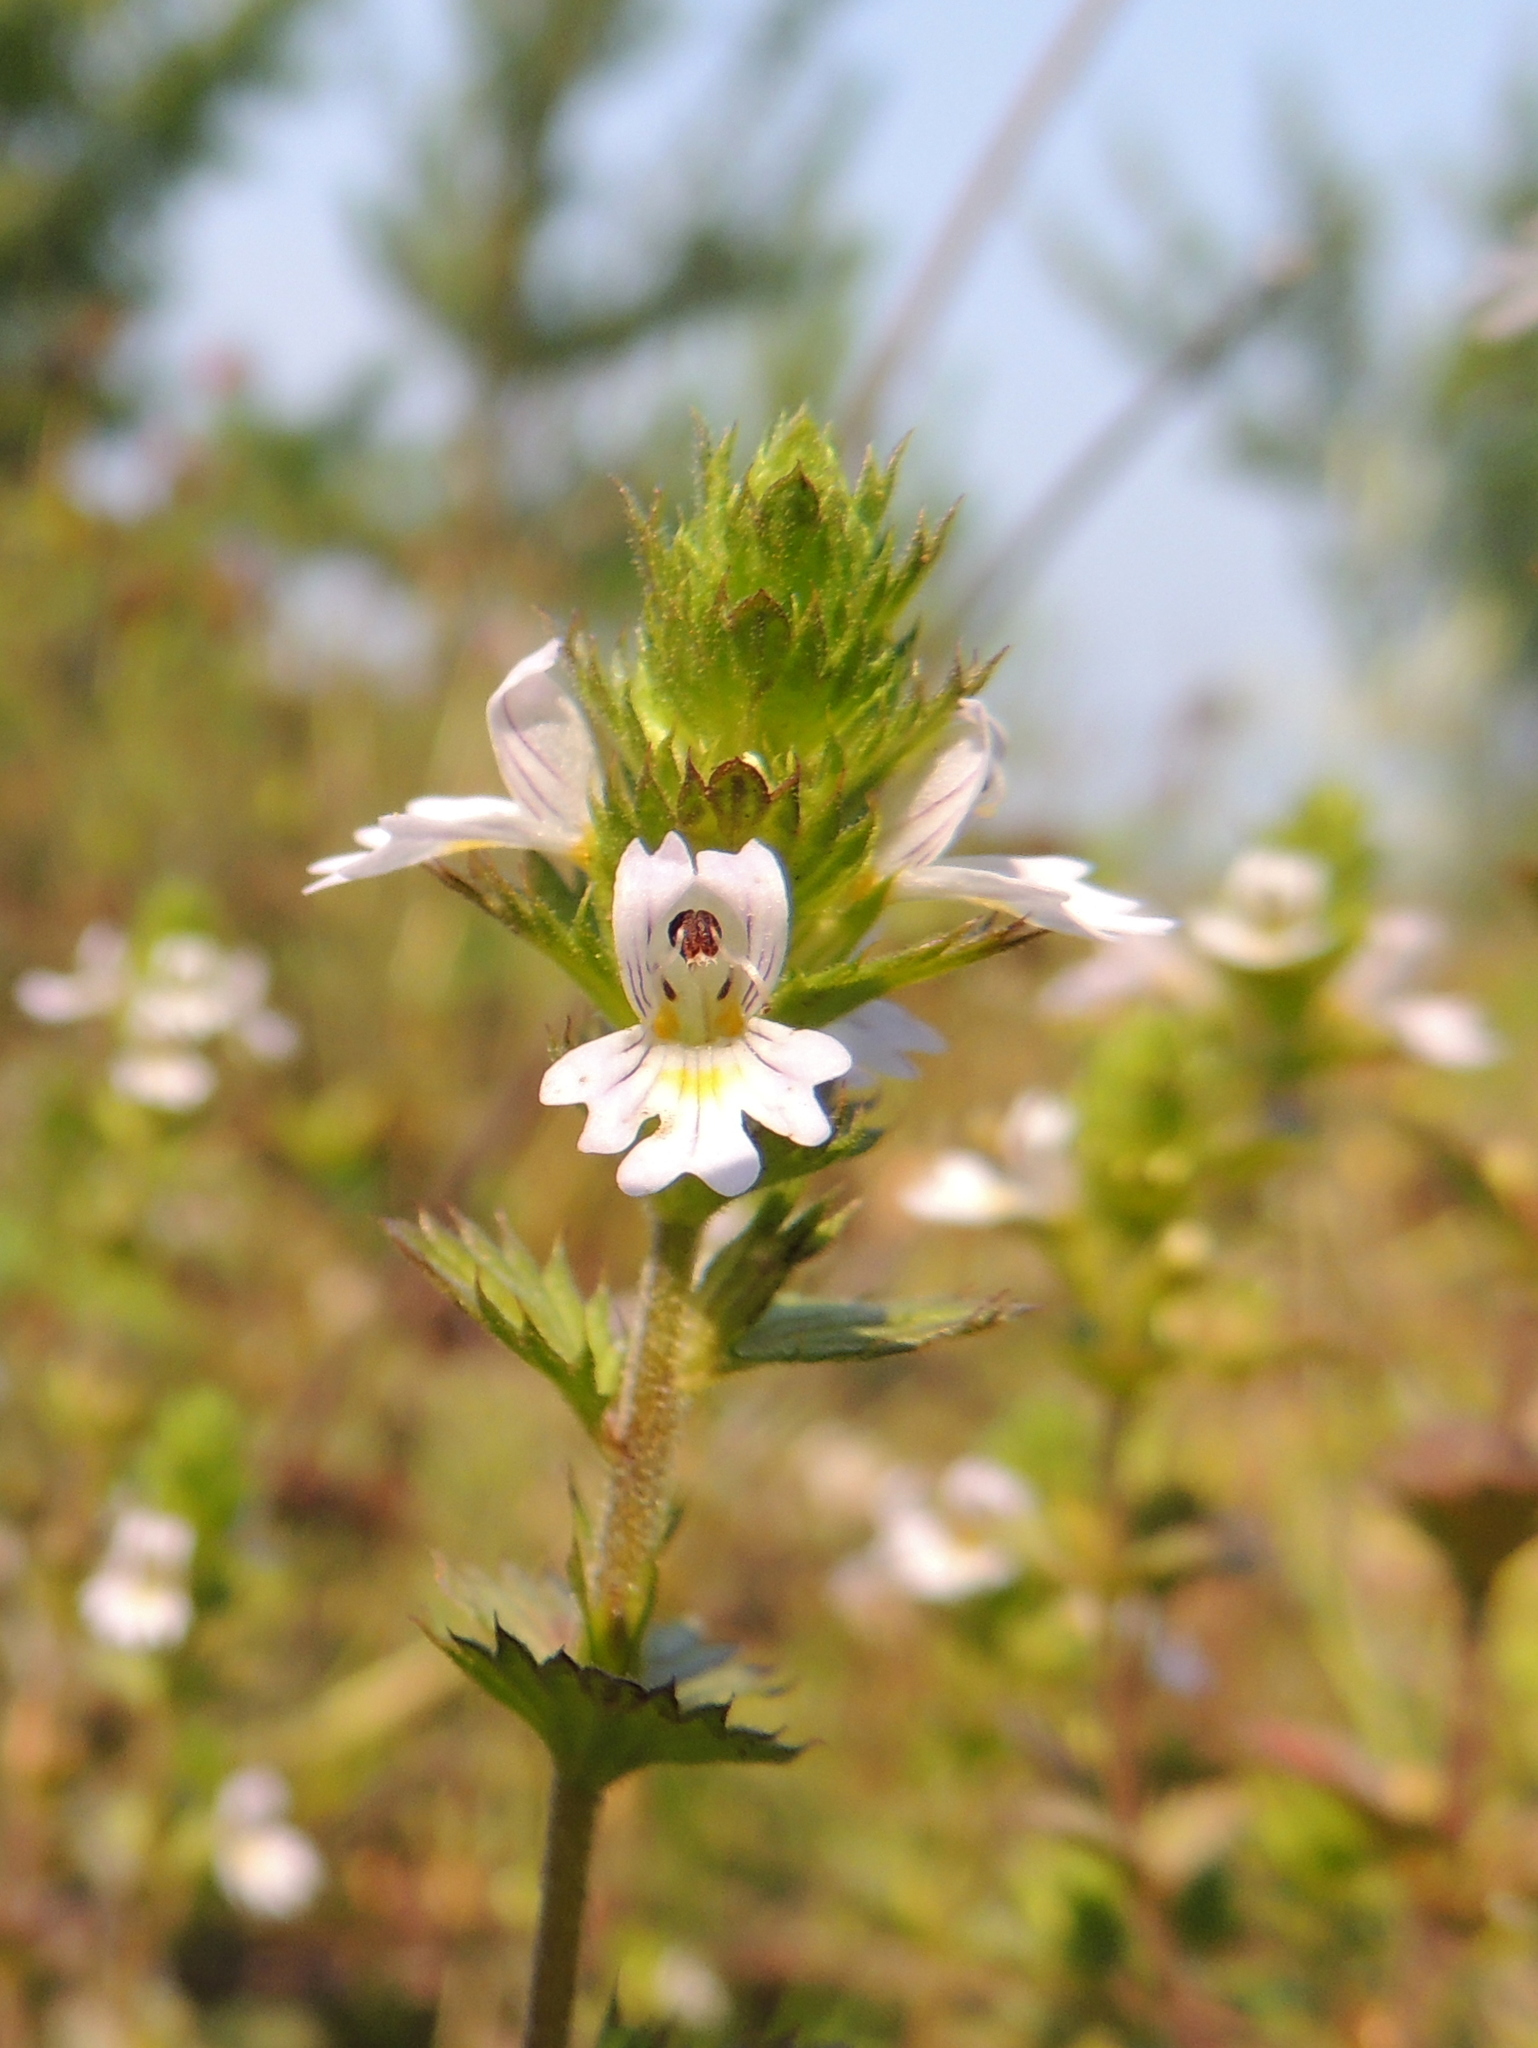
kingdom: Plantae
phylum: Tracheophyta
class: Magnoliopsida
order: Lamiales
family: Orobanchaceae
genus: Euphrasia
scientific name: Euphrasia pectinata
